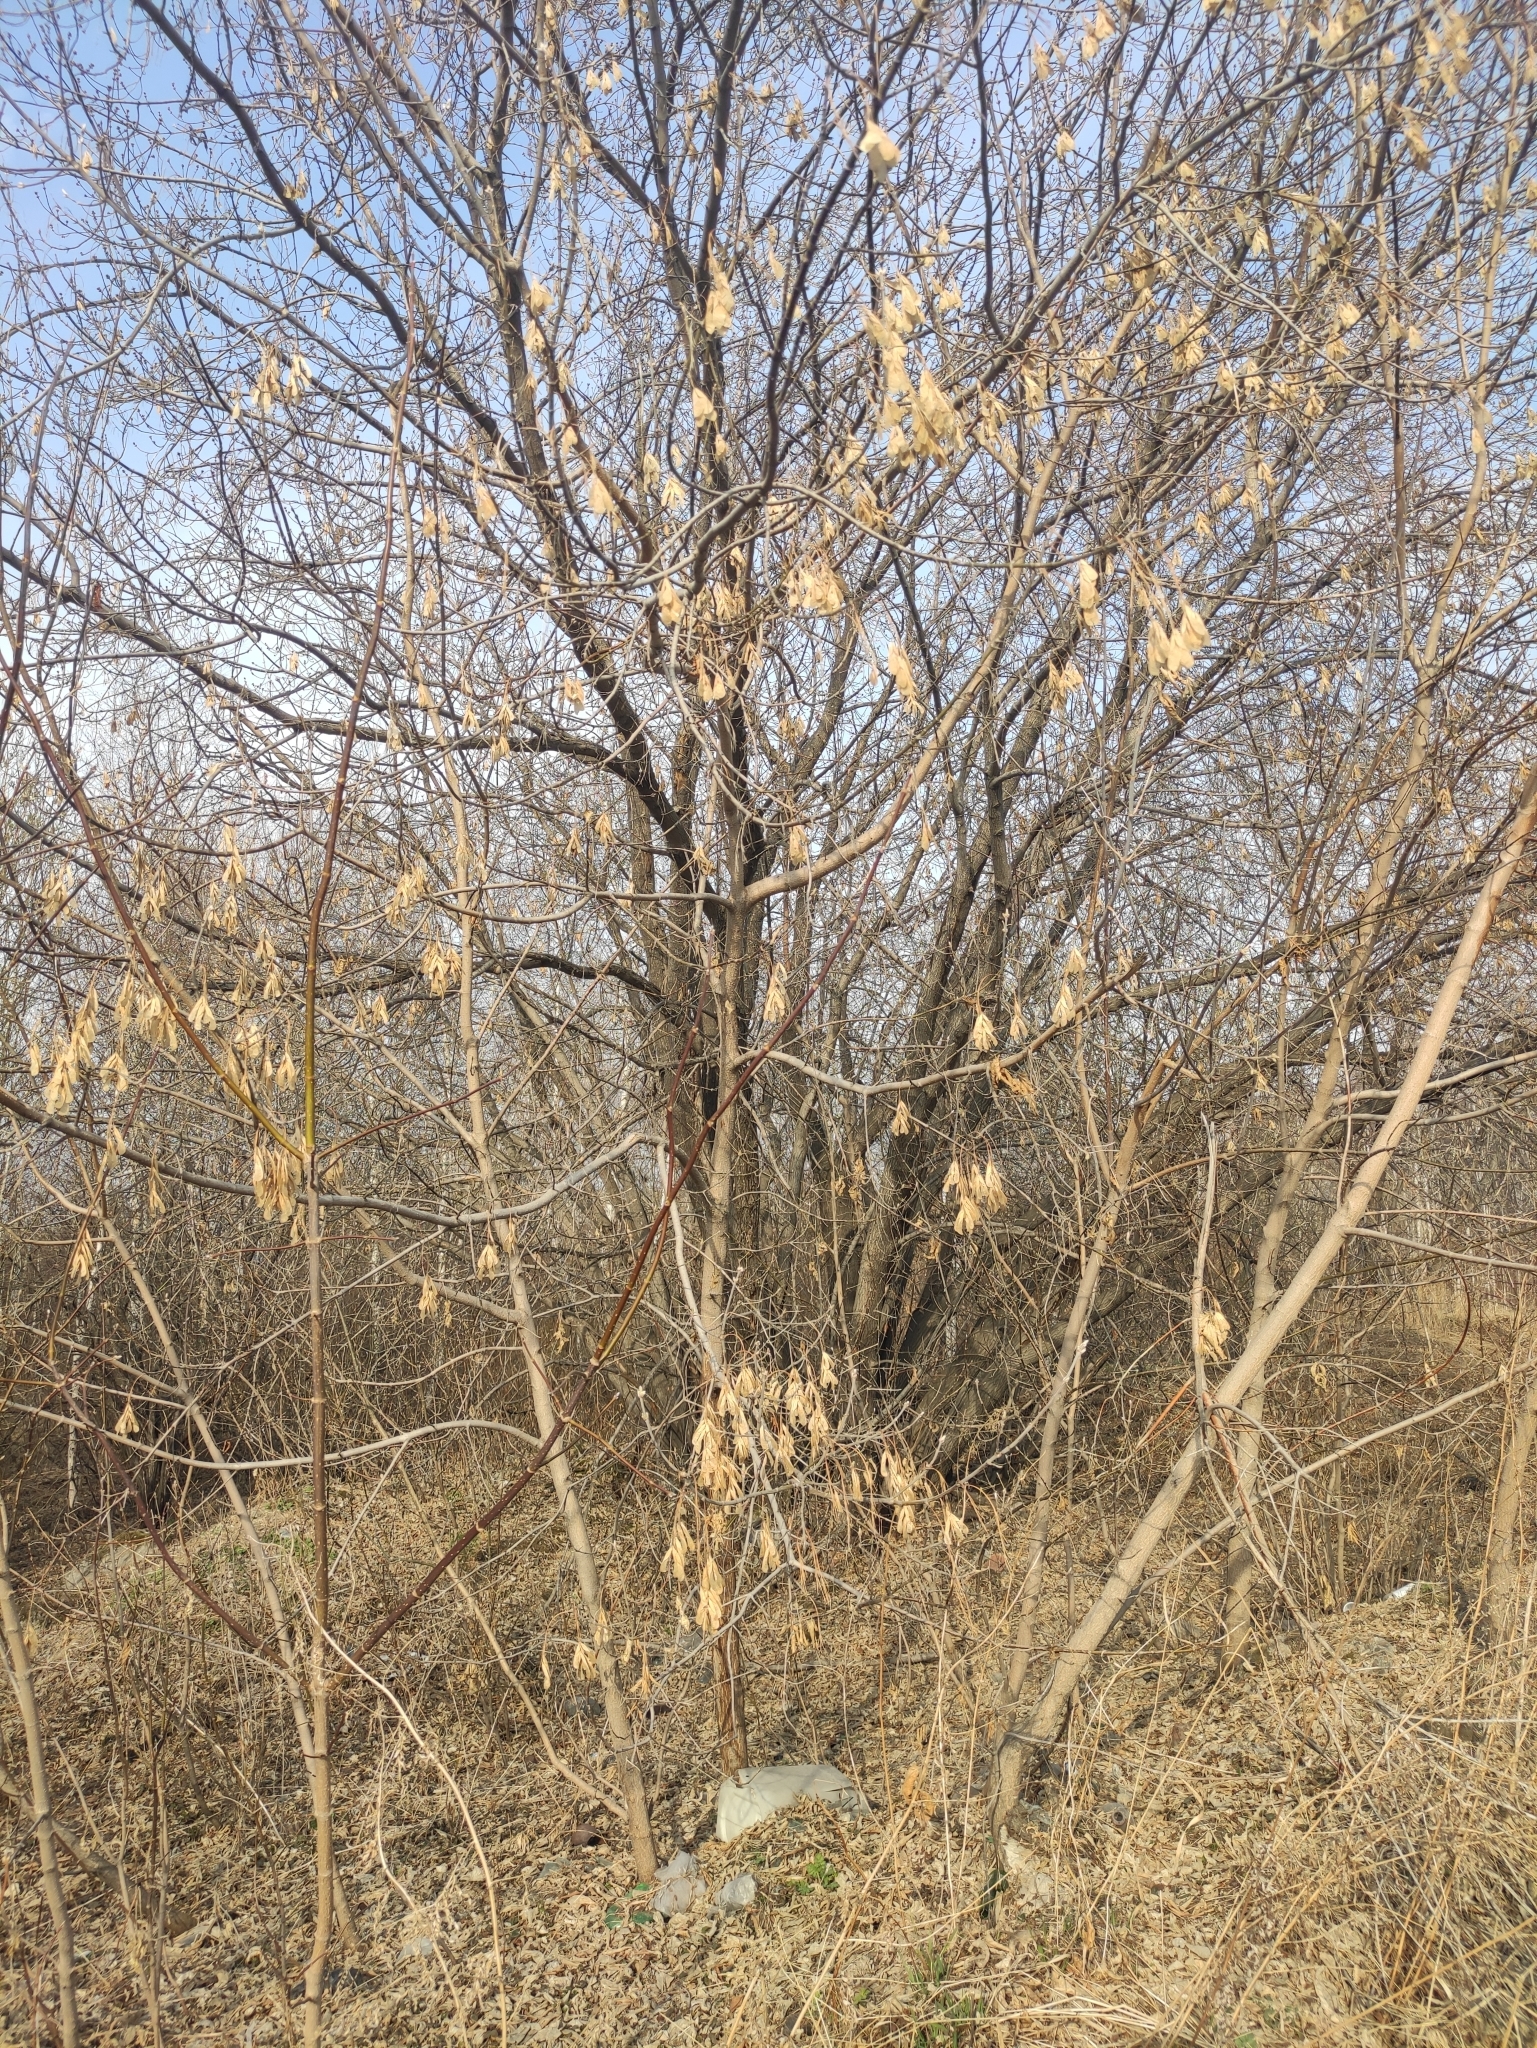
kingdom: Plantae
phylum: Tracheophyta
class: Magnoliopsida
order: Sapindales
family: Sapindaceae
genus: Acer
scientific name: Acer negundo
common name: Ashleaf maple
